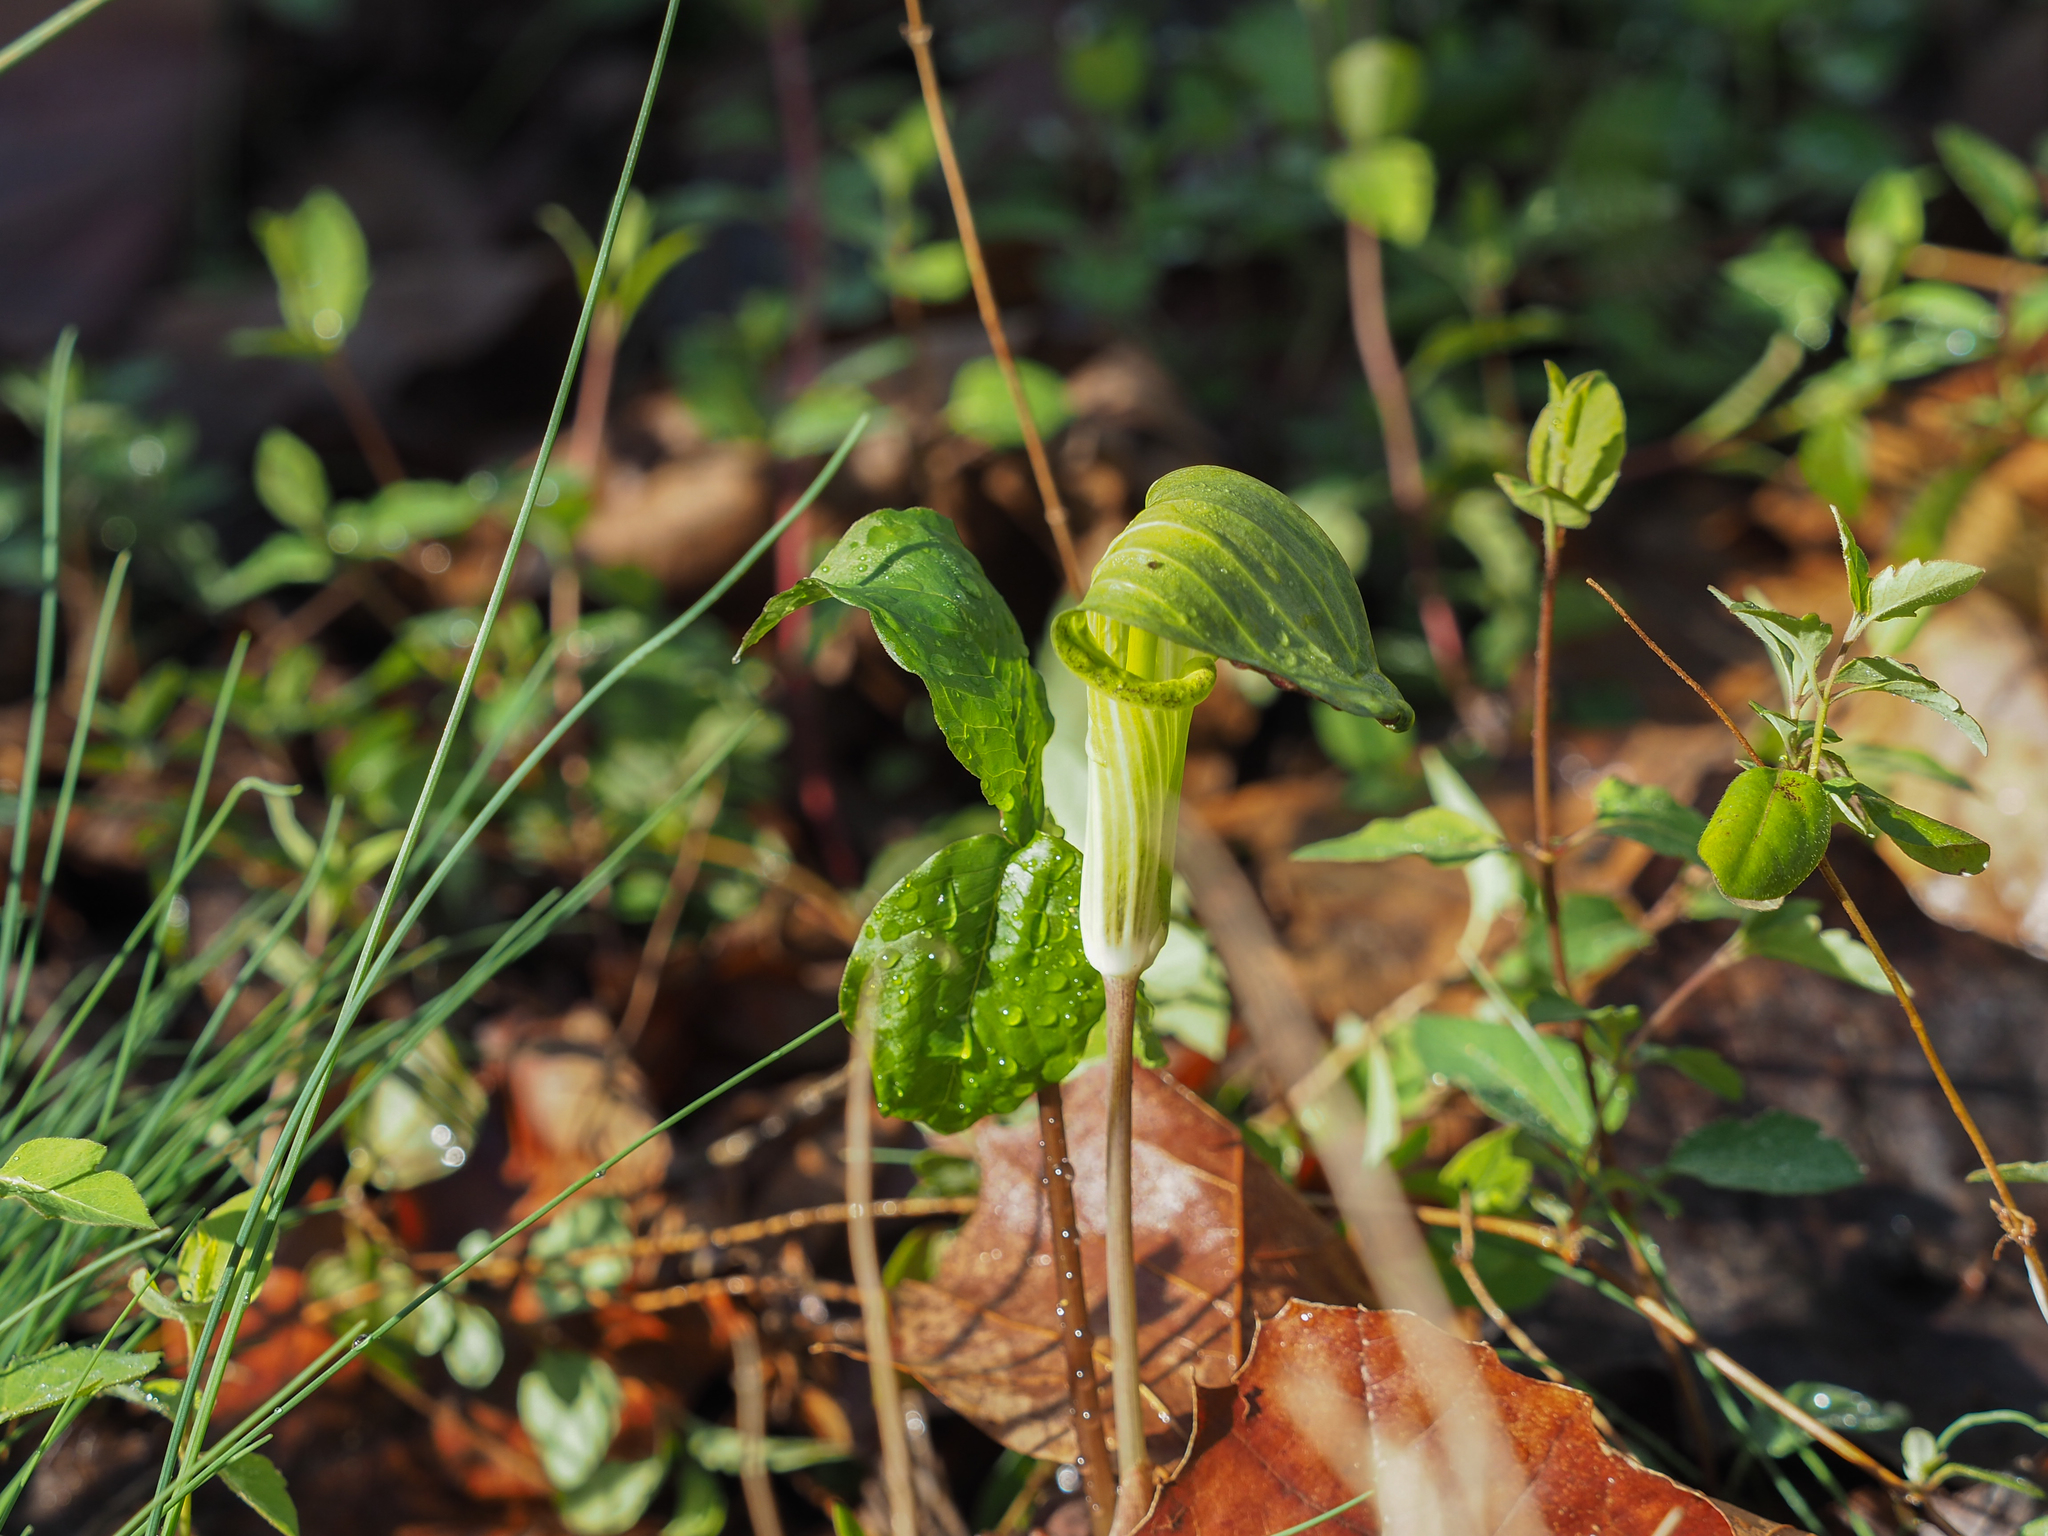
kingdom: Plantae
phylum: Tracheophyta
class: Liliopsida
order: Alismatales
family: Araceae
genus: Arisaema
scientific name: Arisaema triphyllum
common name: Jack-in-the-pulpit
